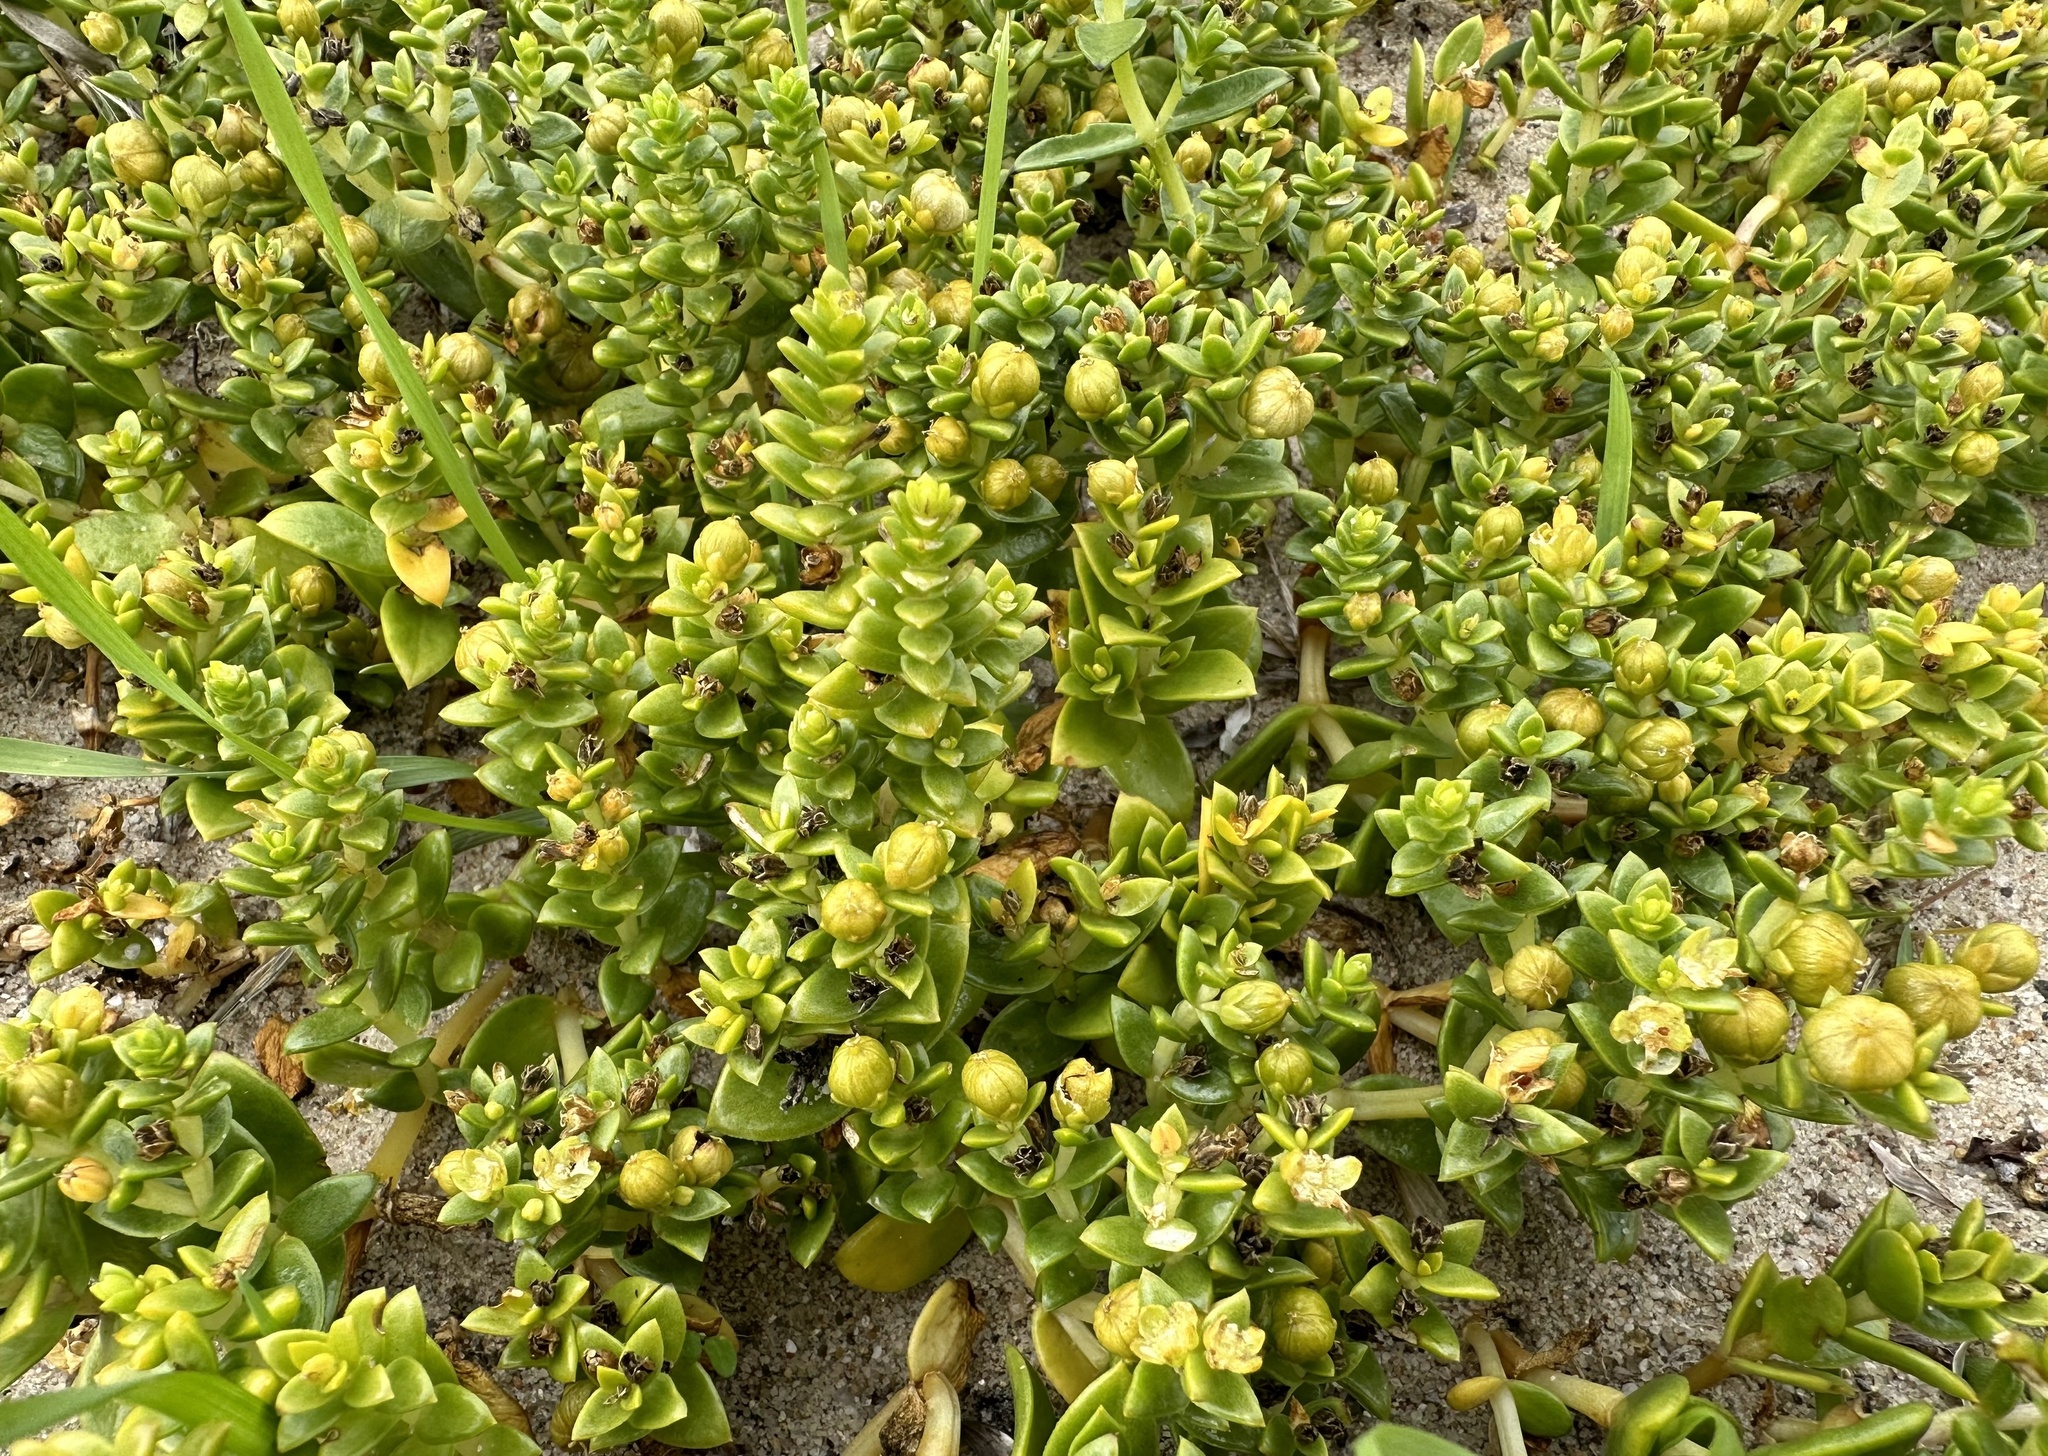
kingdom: Plantae
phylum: Tracheophyta
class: Magnoliopsida
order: Caryophyllales
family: Caryophyllaceae
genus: Honckenya
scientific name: Honckenya peploides
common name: Sea sandwort
